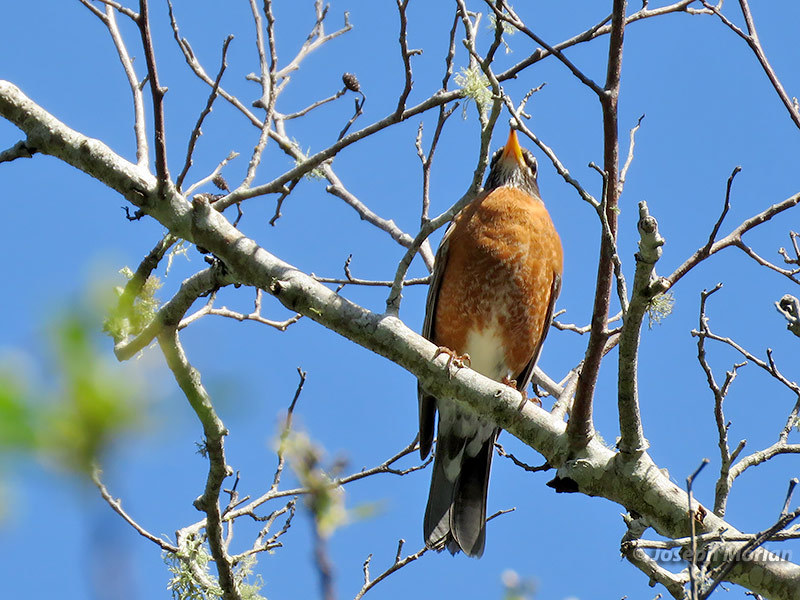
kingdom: Animalia
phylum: Chordata
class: Aves
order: Passeriformes
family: Turdidae
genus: Turdus
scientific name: Turdus migratorius
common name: American robin
